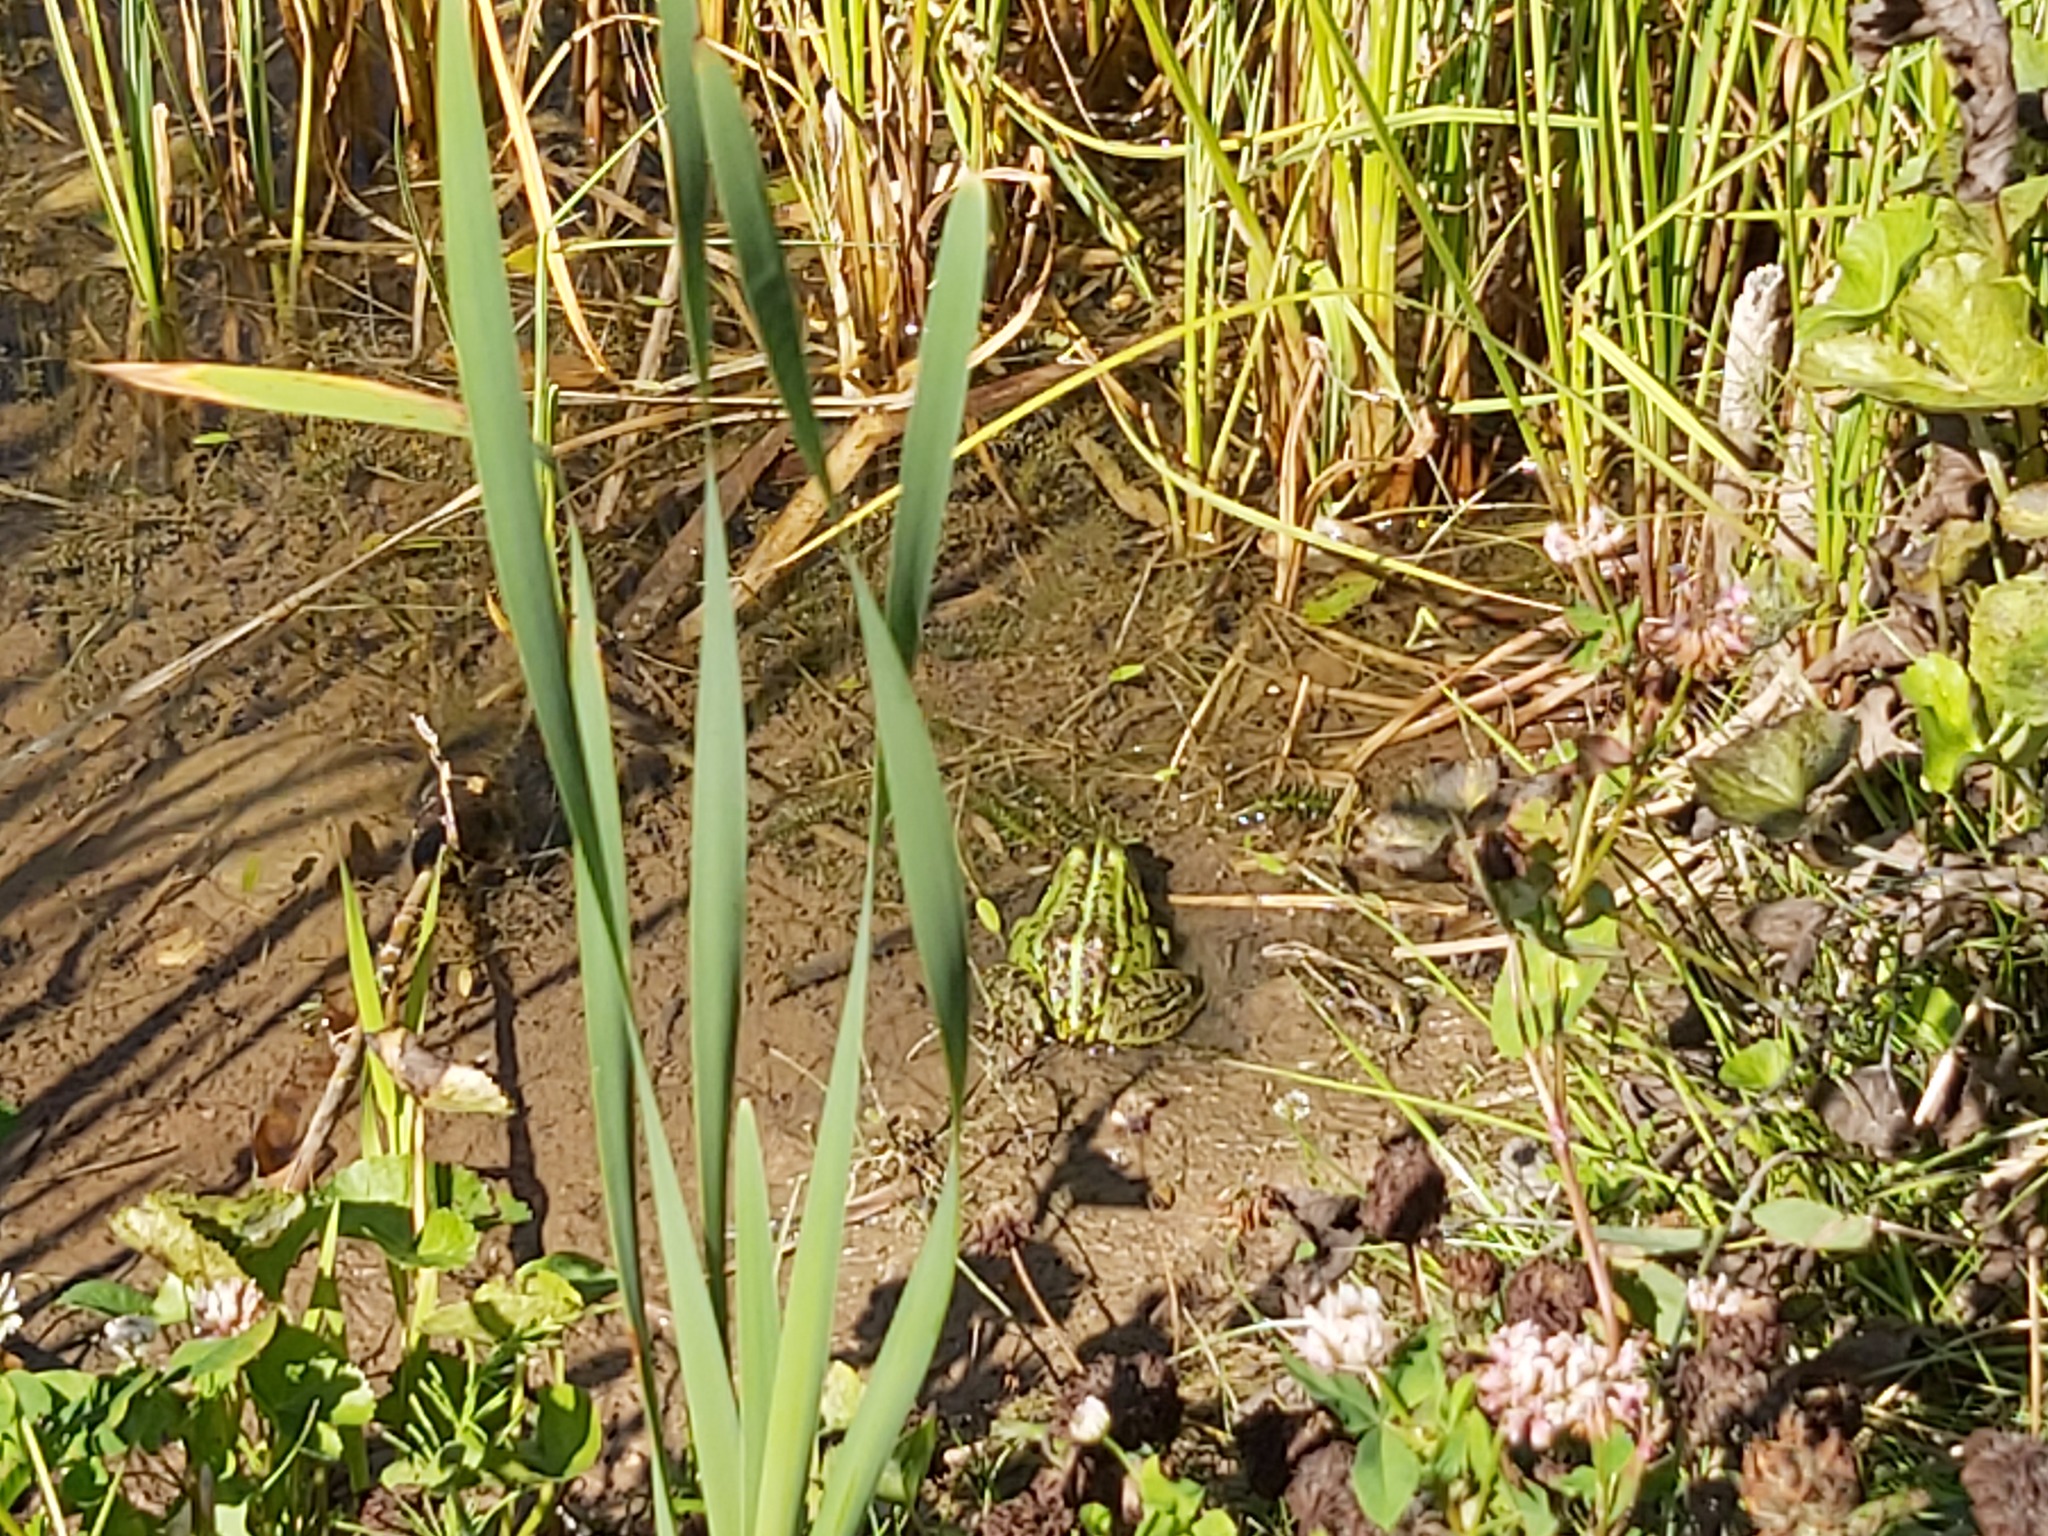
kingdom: Animalia
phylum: Chordata
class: Amphibia
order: Anura
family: Ranidae
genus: Pelophylax
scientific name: Pelophylax
